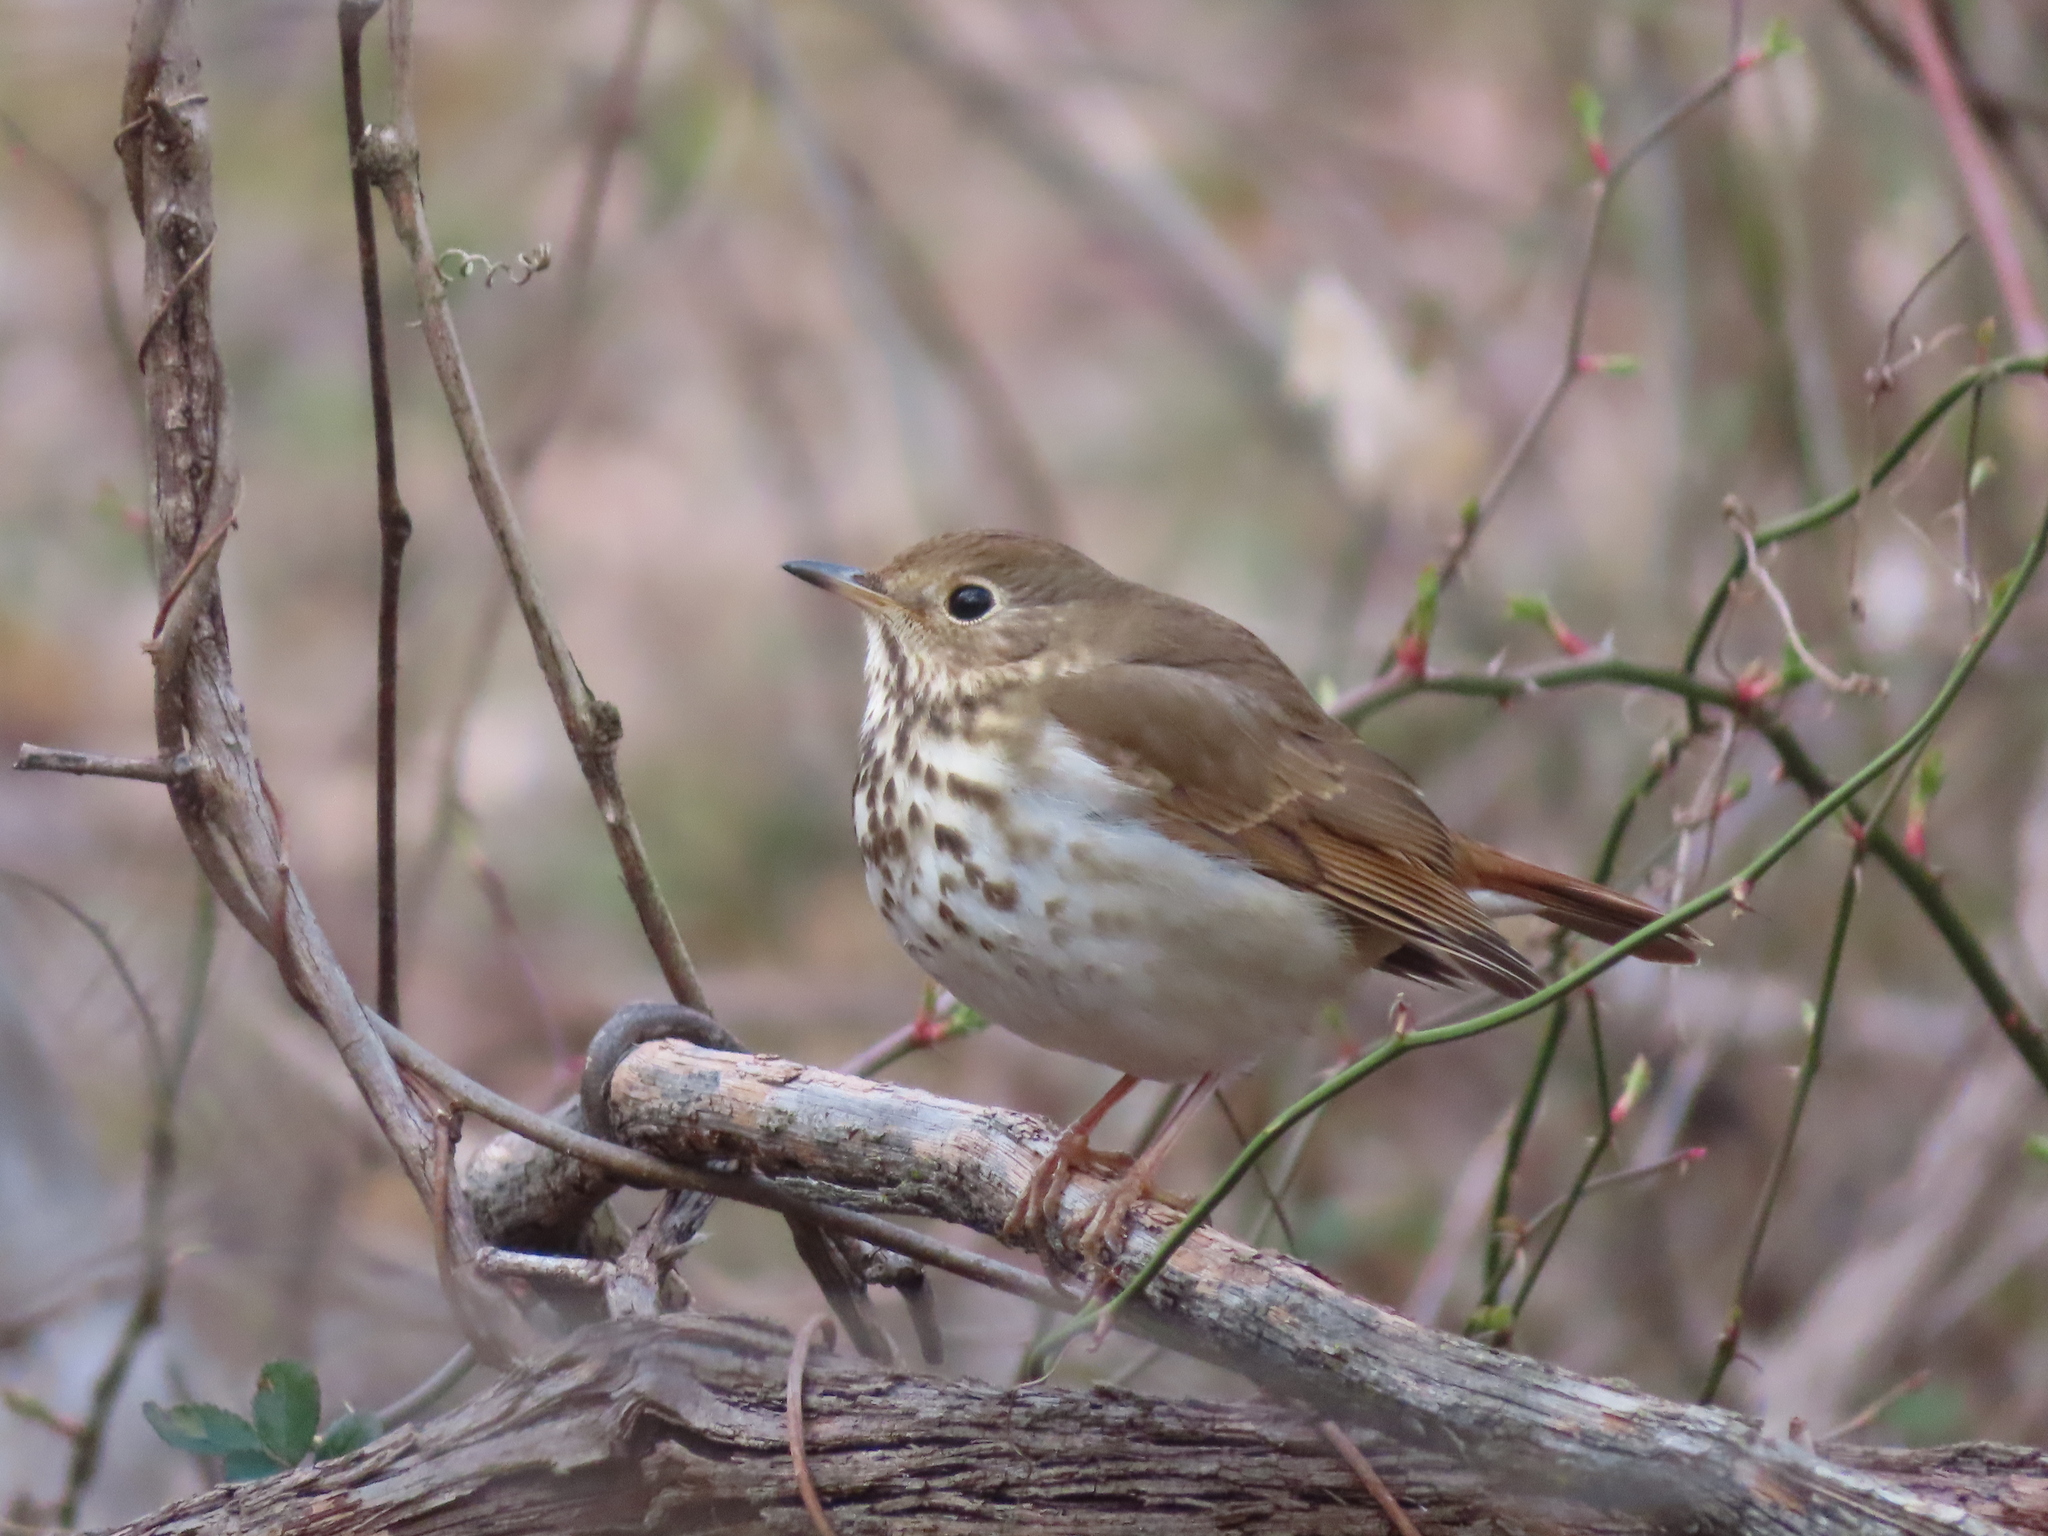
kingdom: Animalia
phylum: Chordata
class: Aves
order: Passeriformes
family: Turdidae
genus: Catharus
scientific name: Catharus guttatus
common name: Hermit thrush
